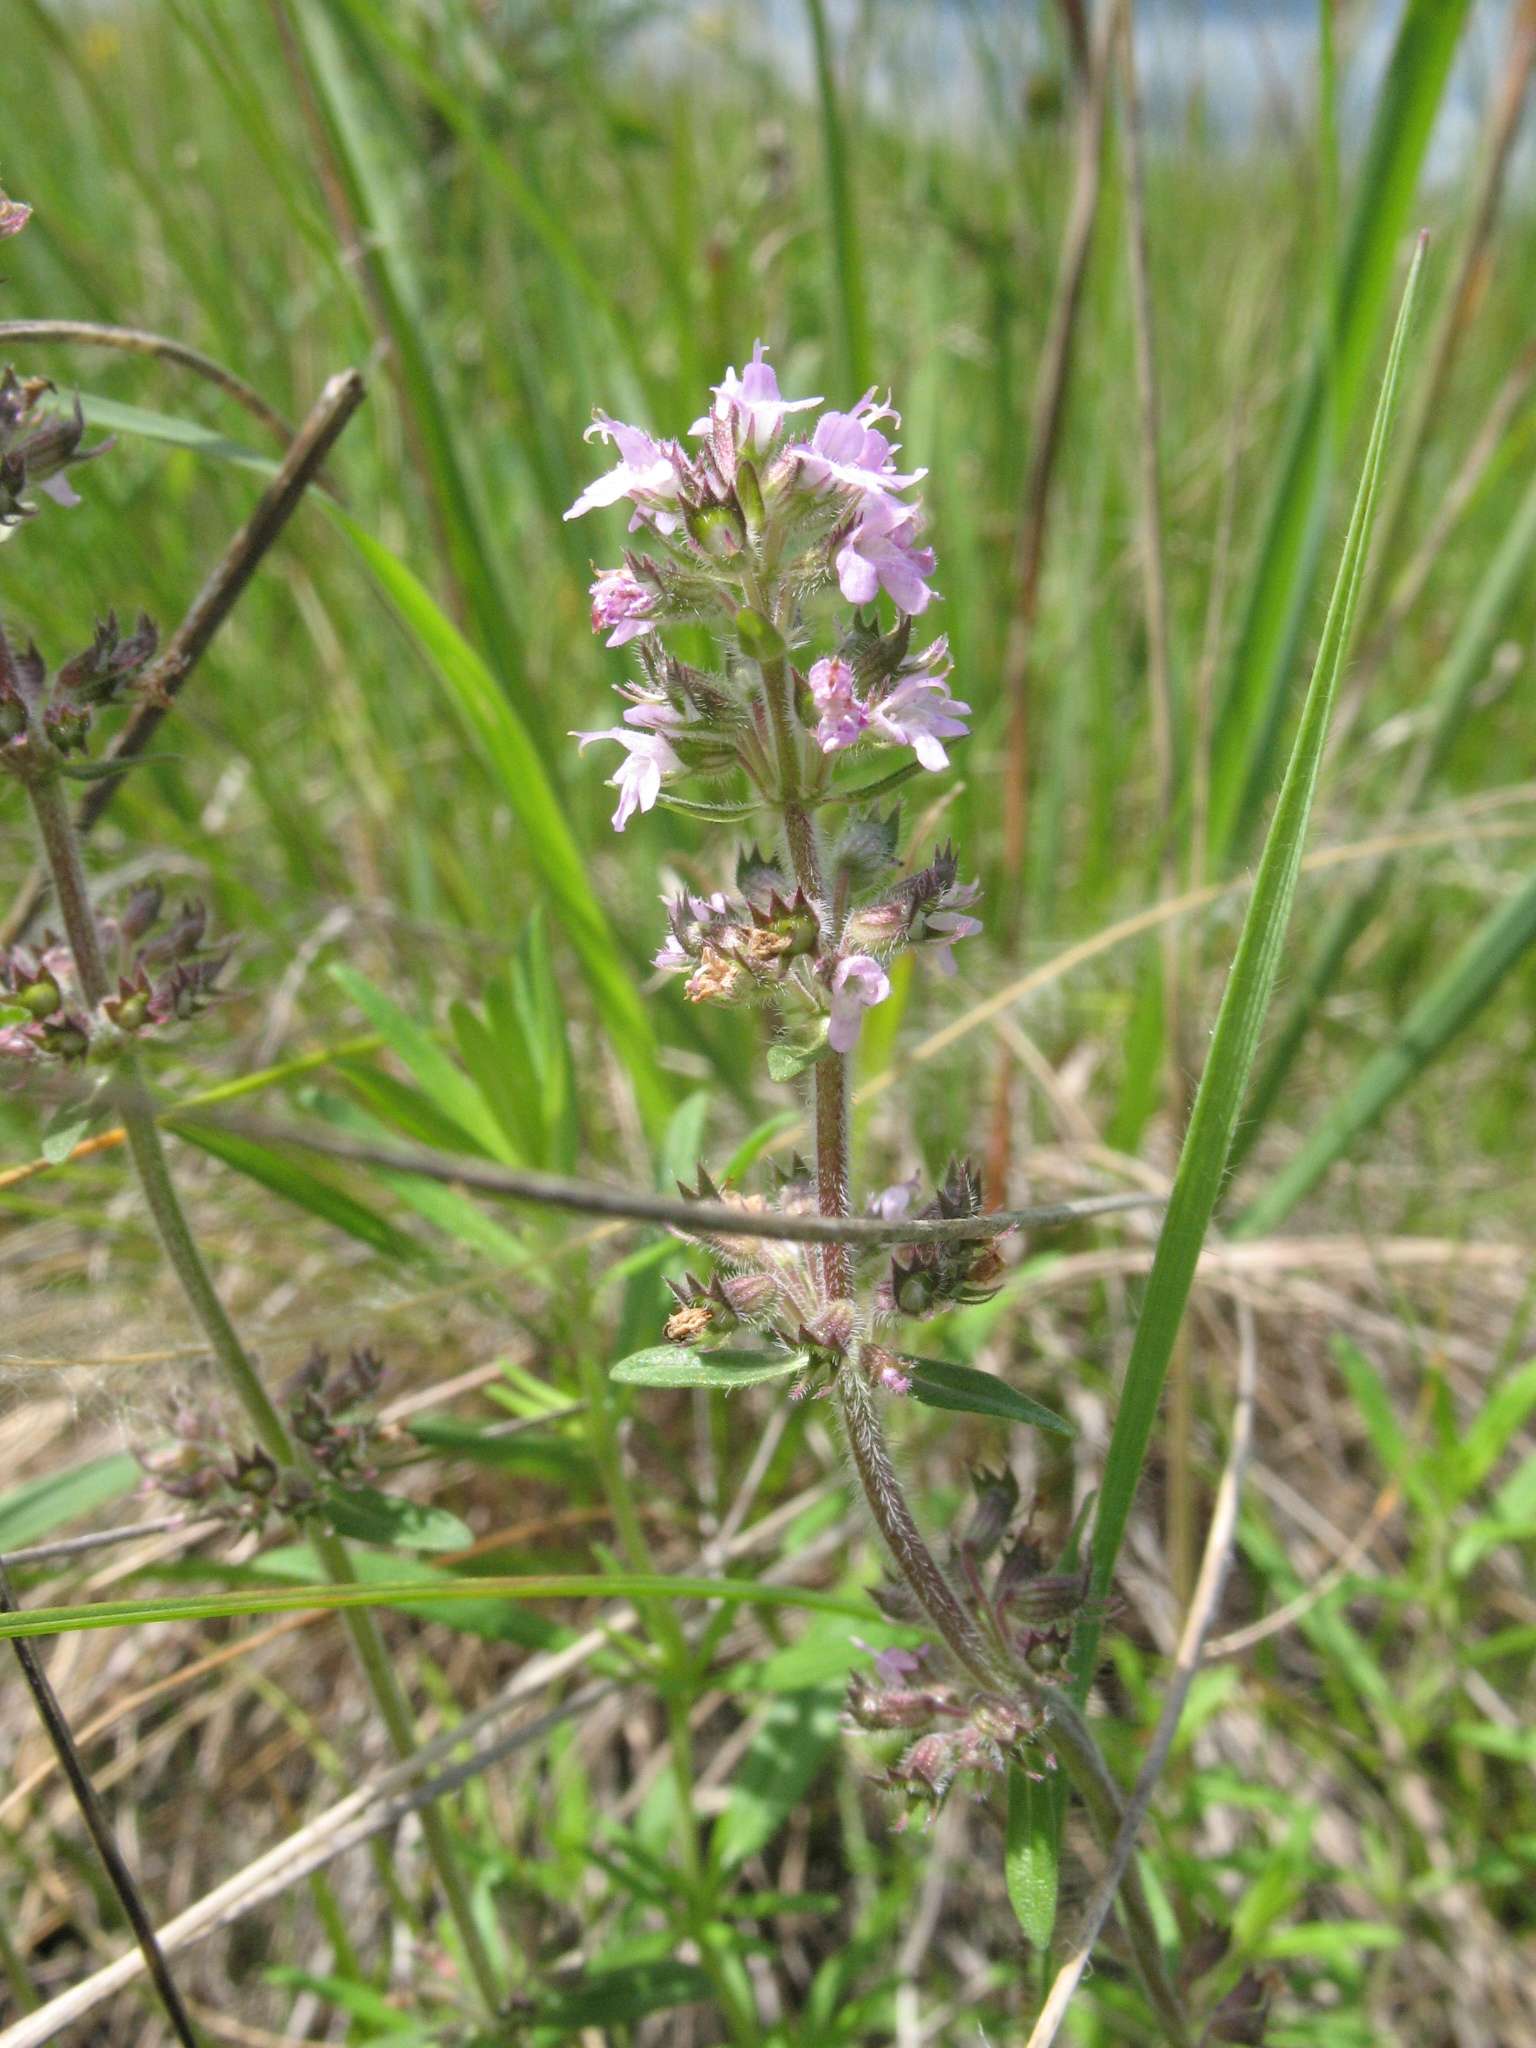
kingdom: Plantae
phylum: Tracheophyta
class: Magnoliopsida
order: Lamiales
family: Lamiaceae
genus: Thymus
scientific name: Thymus pannonicus
